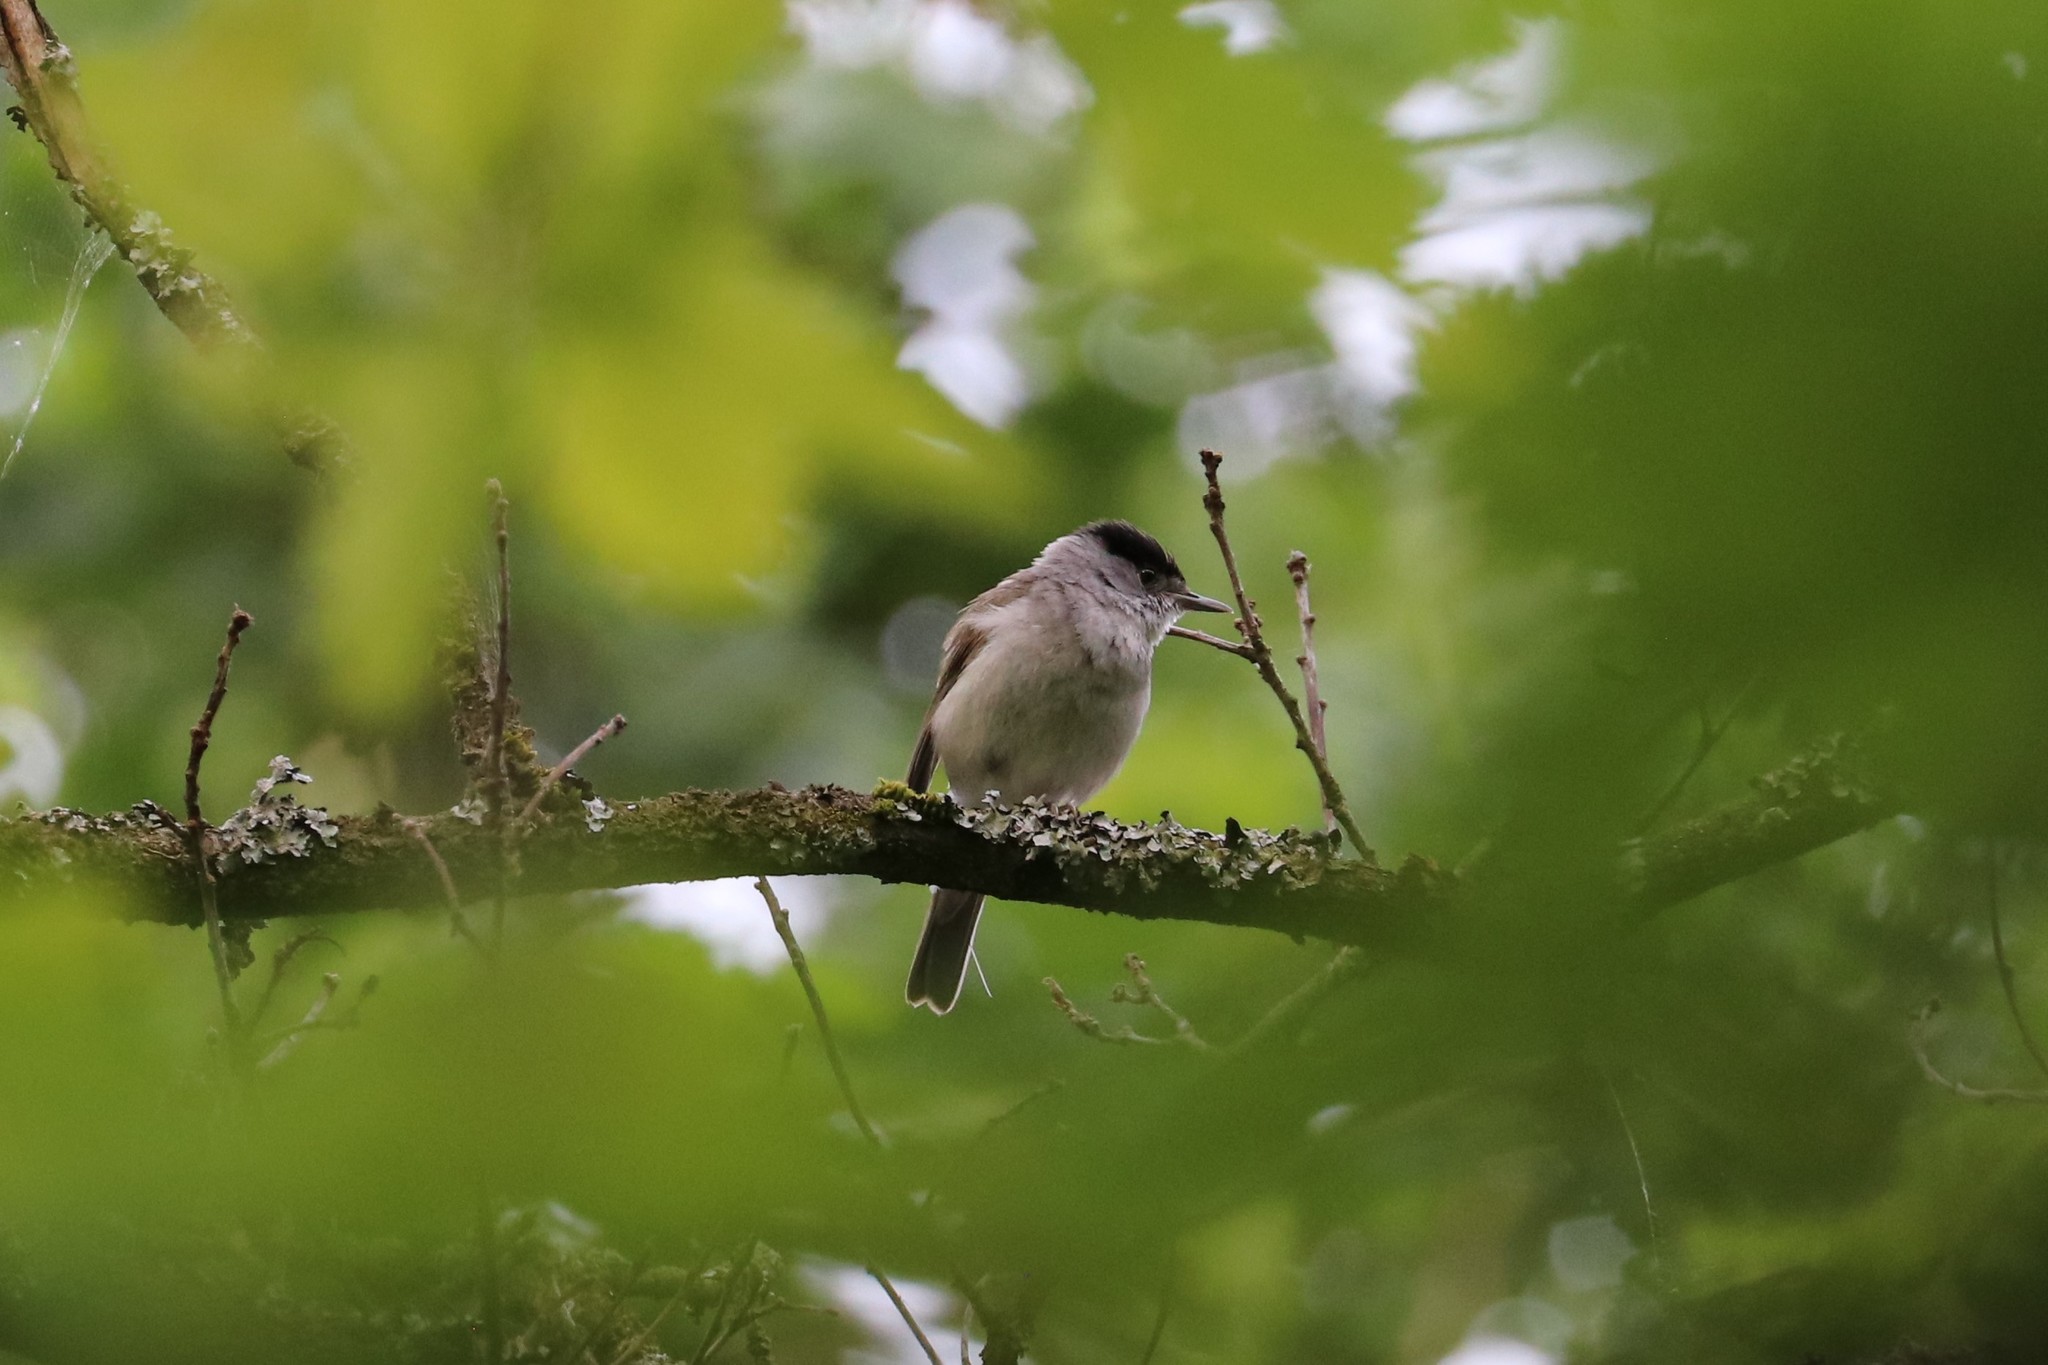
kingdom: Animalia
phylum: Chordata
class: Aves
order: Passeriformes
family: Sylviidae
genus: Sylvia
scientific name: Sylvia atricapilla
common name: Eurasian blackcap
